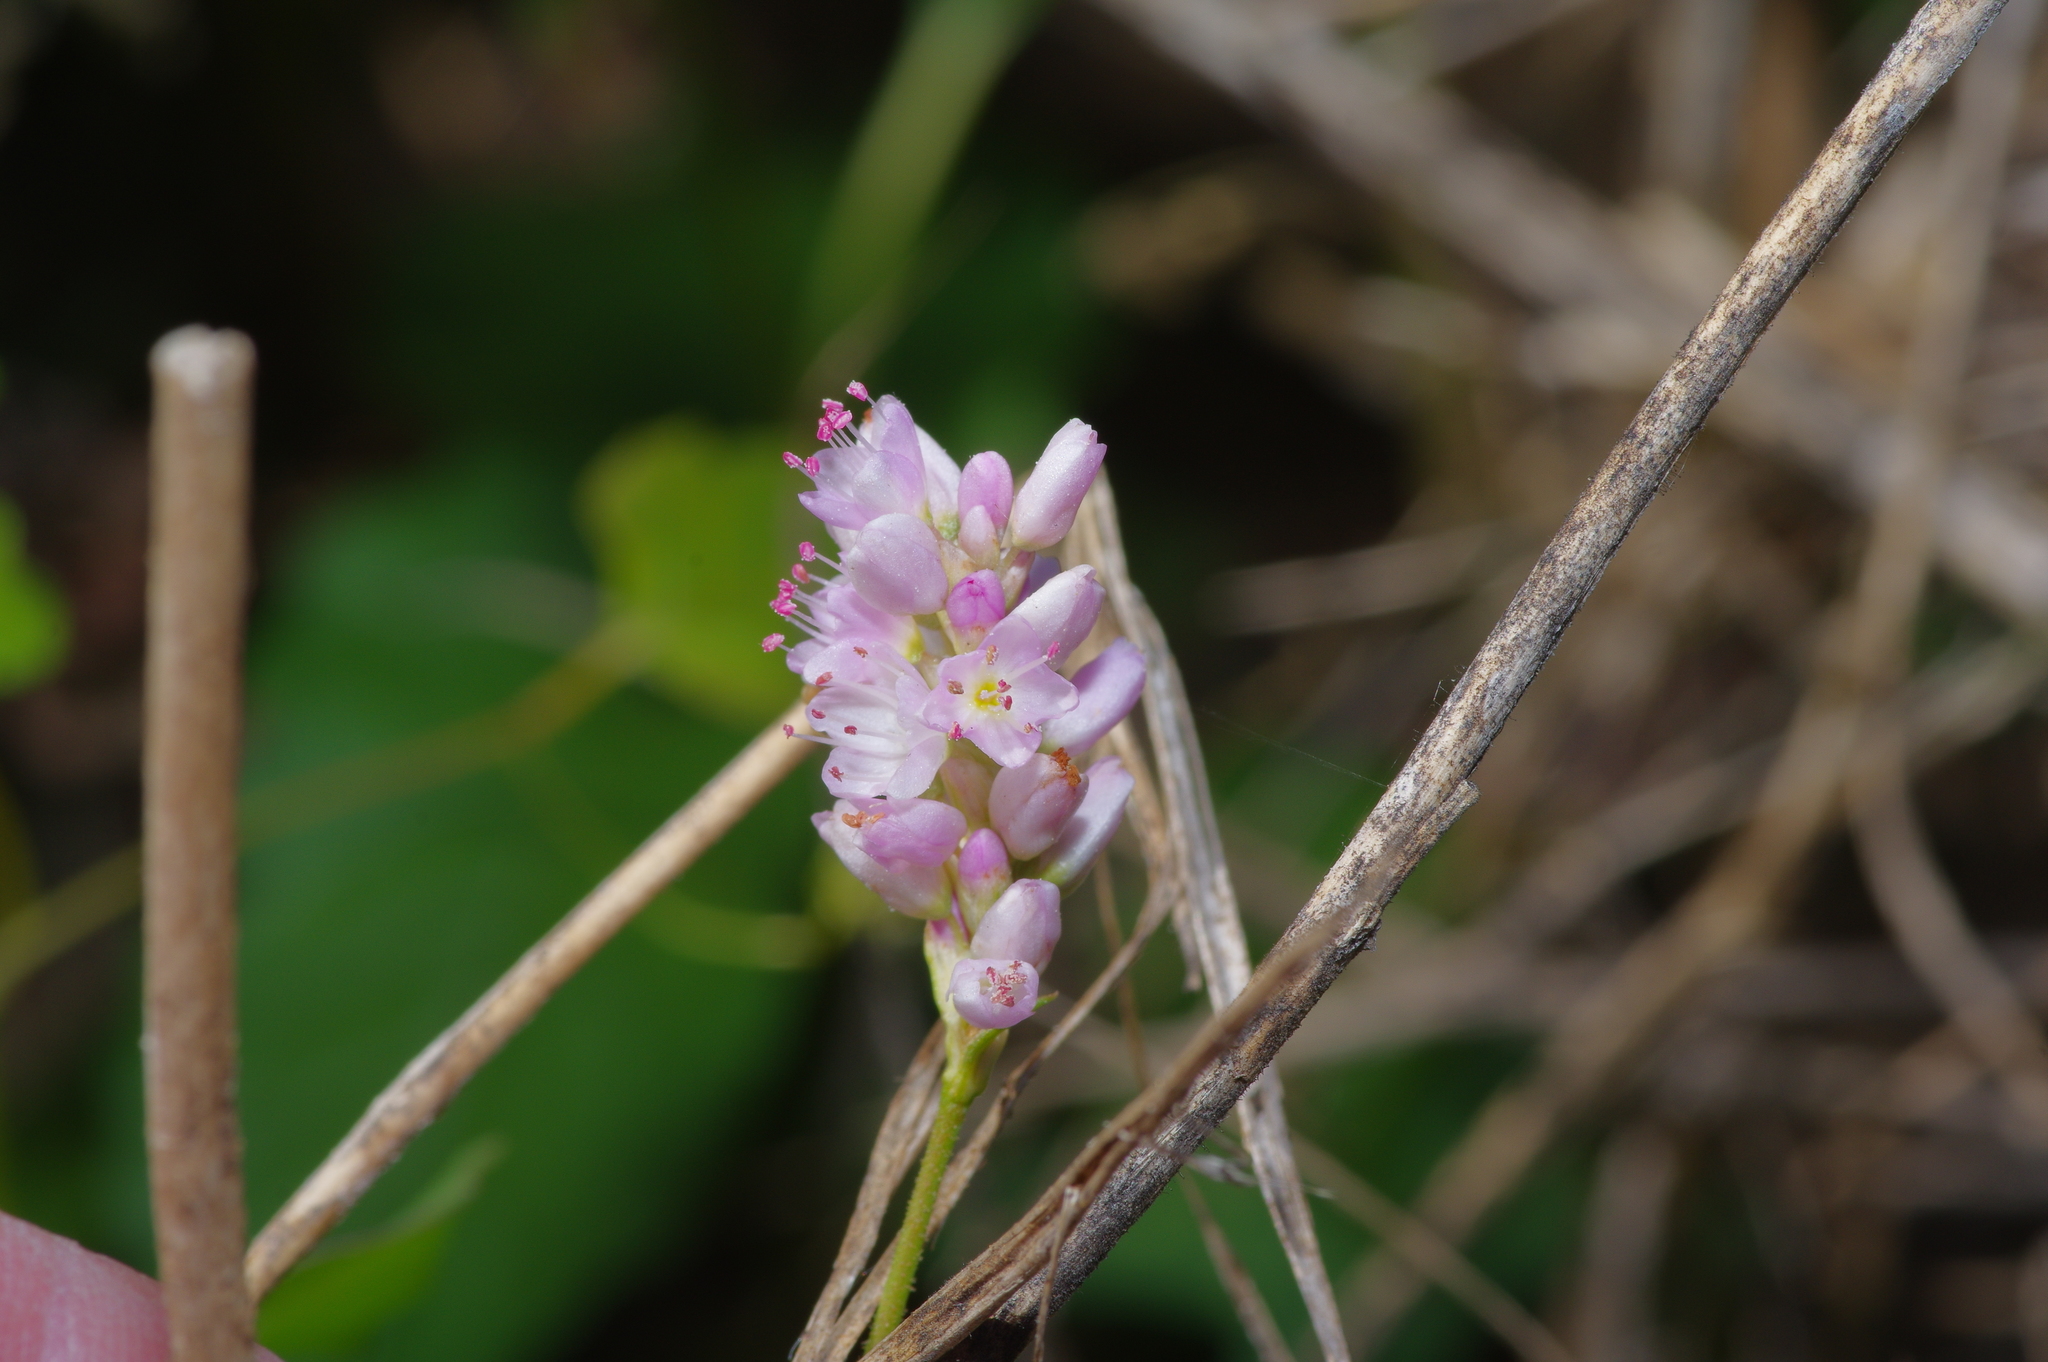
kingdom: Plantae
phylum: Tracheophyta
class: Magnoliopsida
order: Caryophyllales
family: Polygonaceae
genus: Persicaria
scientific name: Persicaria bicornis
